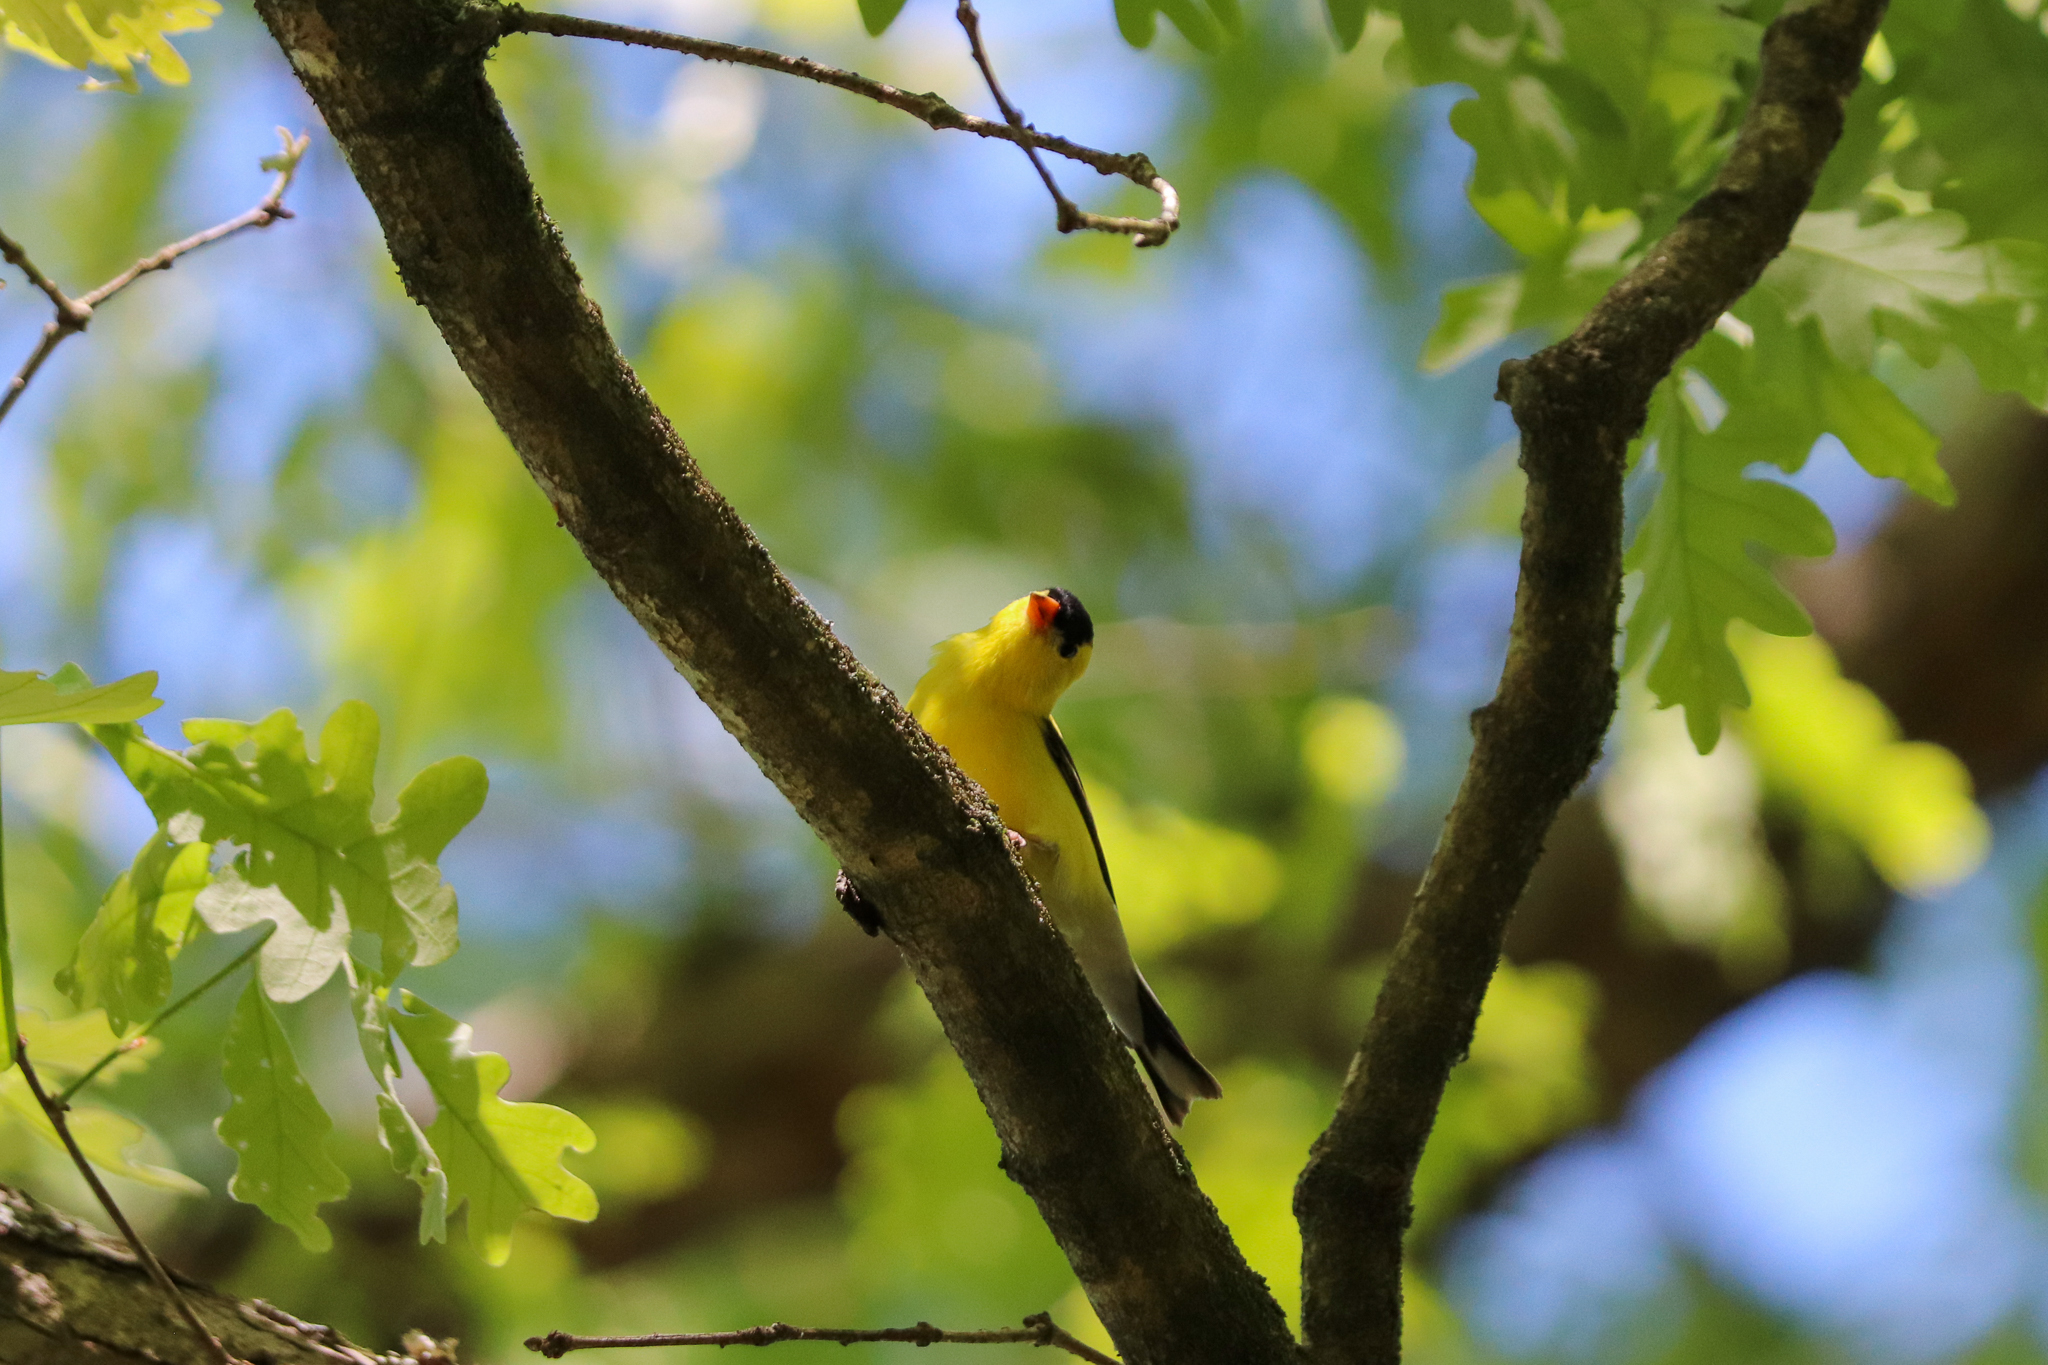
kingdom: Animalia
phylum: Chordata
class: Aves
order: Passeriformes
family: Fringillidae
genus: Spinus
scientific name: Spinus tristis
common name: American goldfinch
